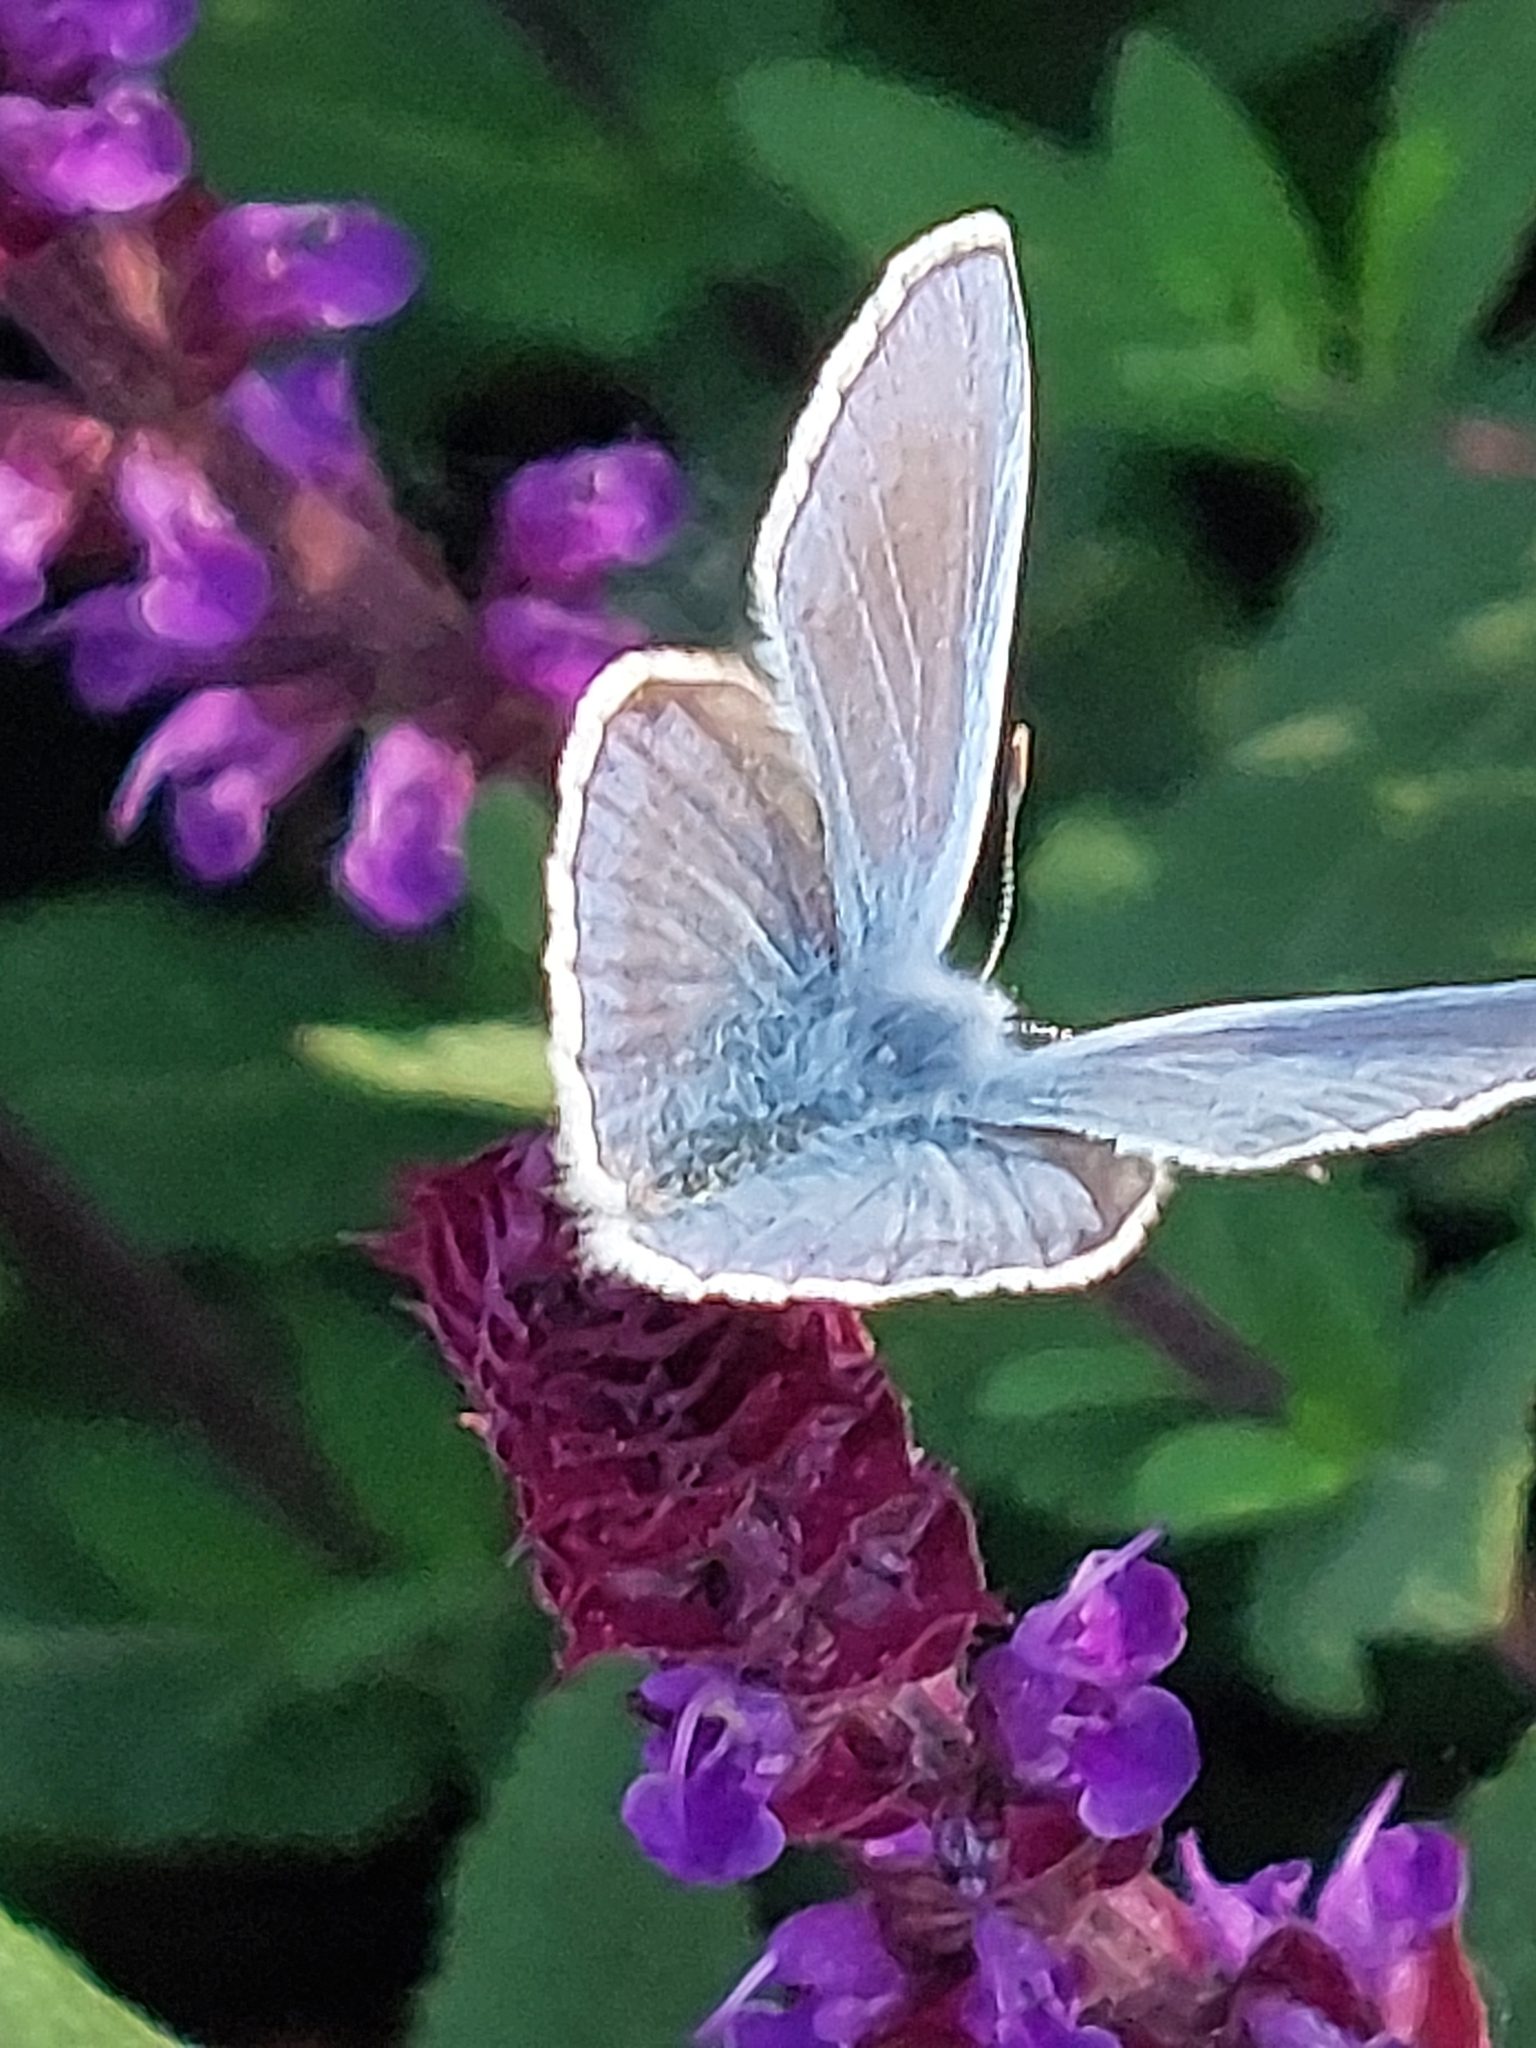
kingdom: Animalia
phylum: Arthropoda
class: Insecta
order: Lepidoptera
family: Lycaenidae
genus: Polyommatus
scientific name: Polyommatus icarus
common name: Common blue
